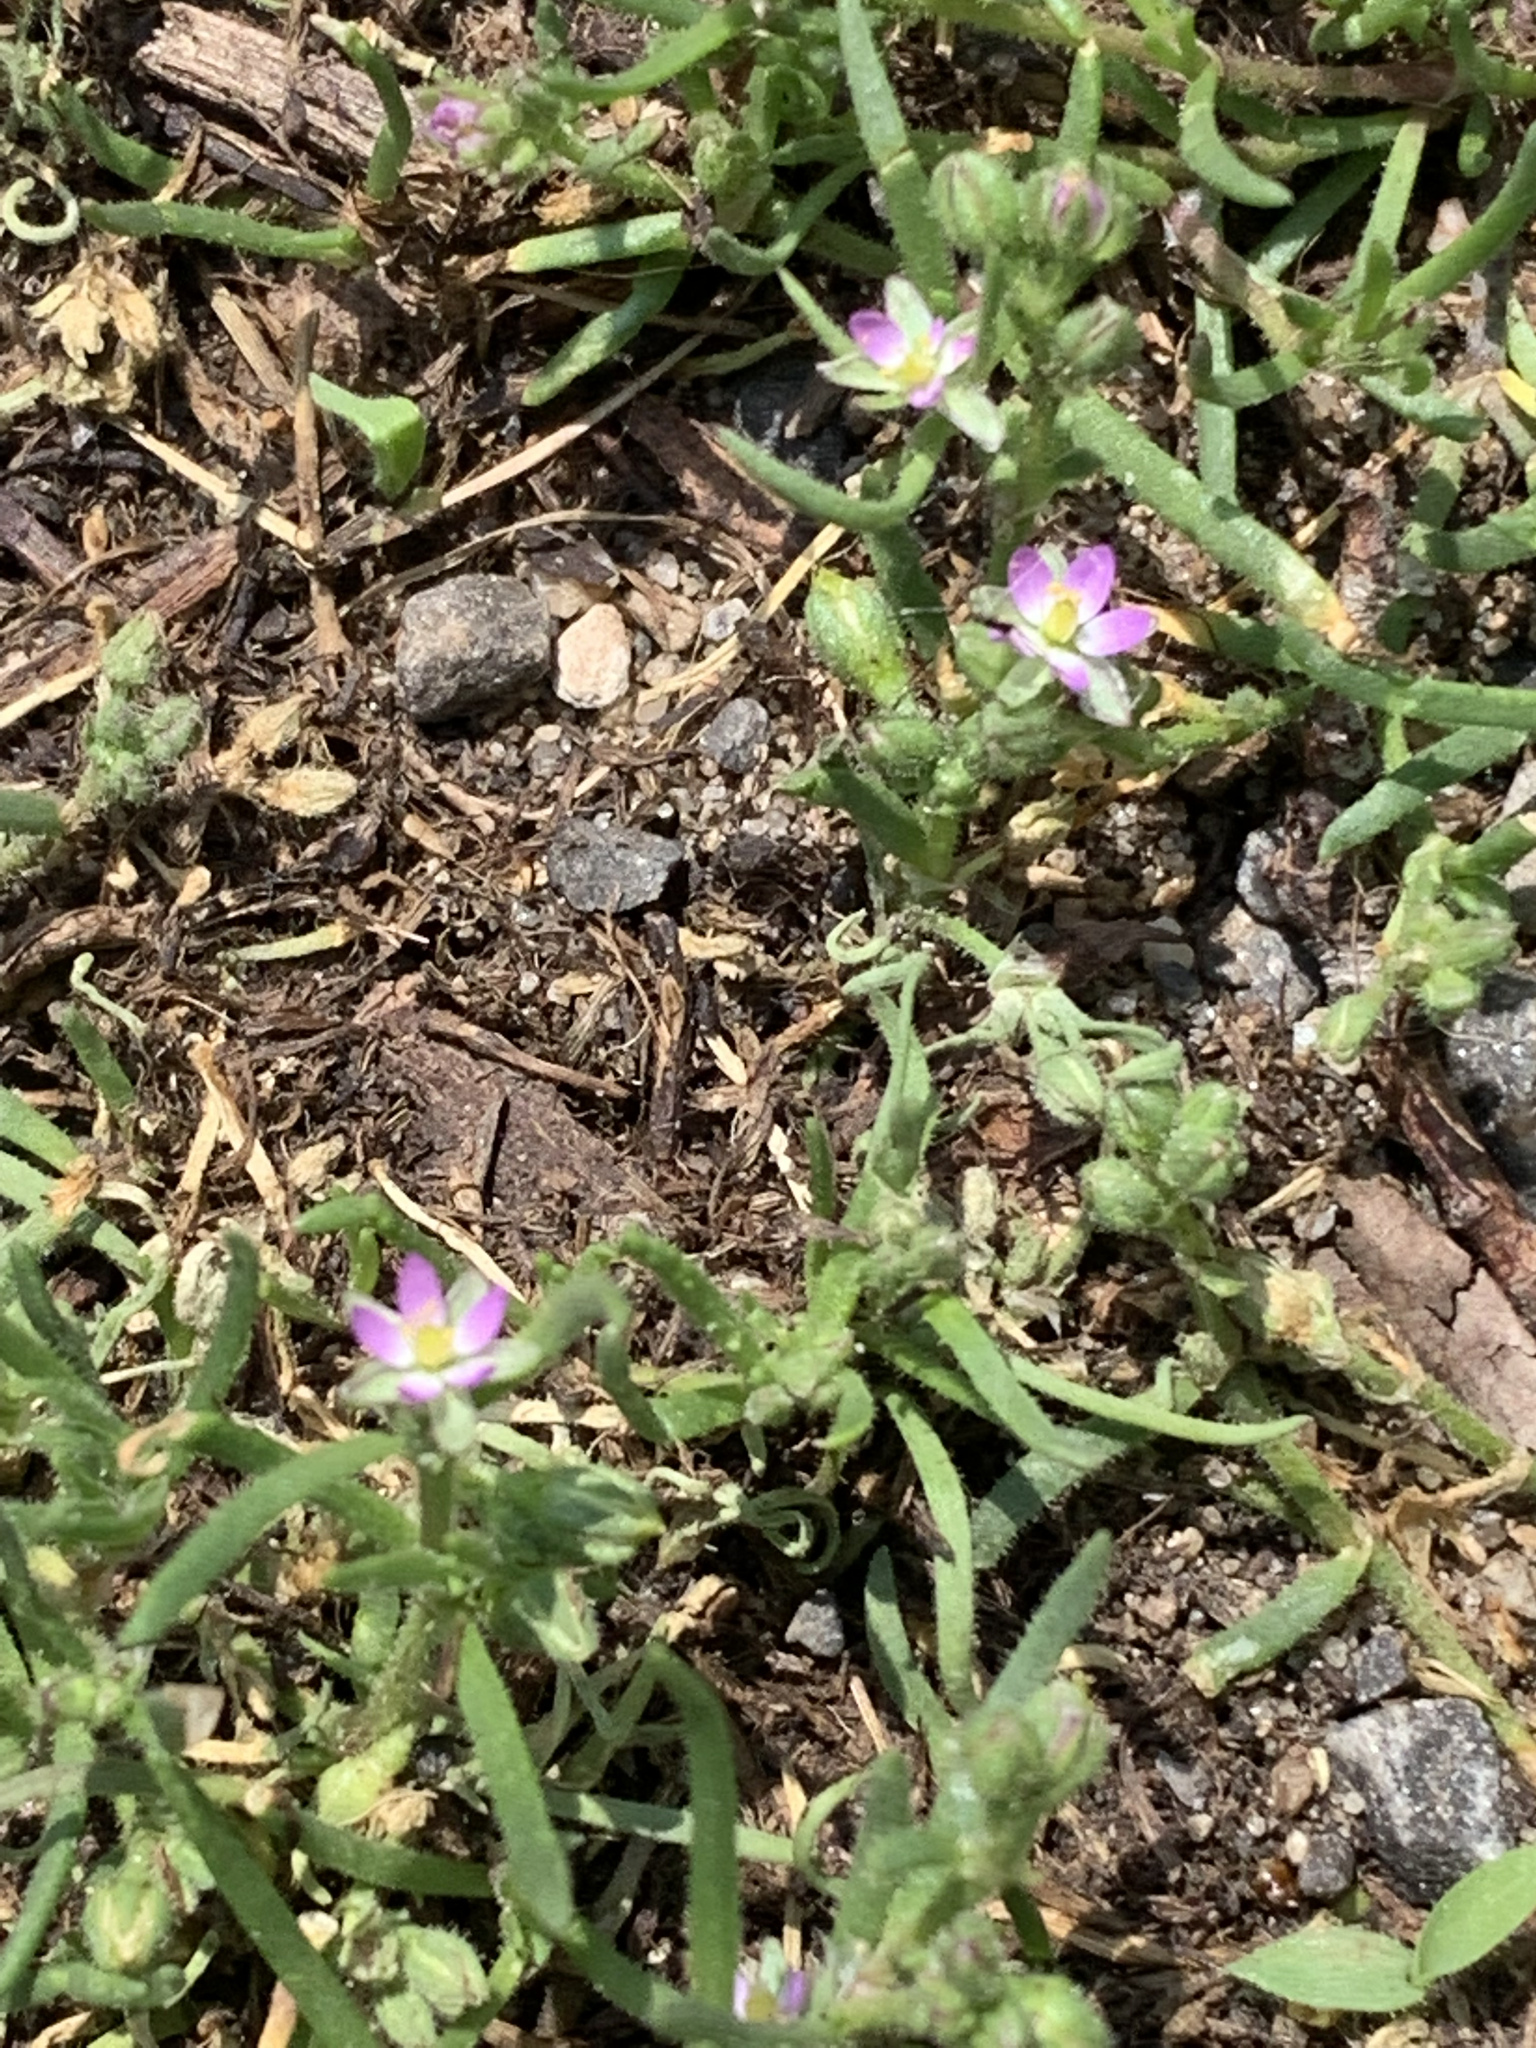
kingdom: Plantae
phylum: Tracheophyta
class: Magnoliopsida
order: Caryophyllales
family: Caryophyllaceae
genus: Spergularia
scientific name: Spergularia marina
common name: Lesser sea-spurrey
